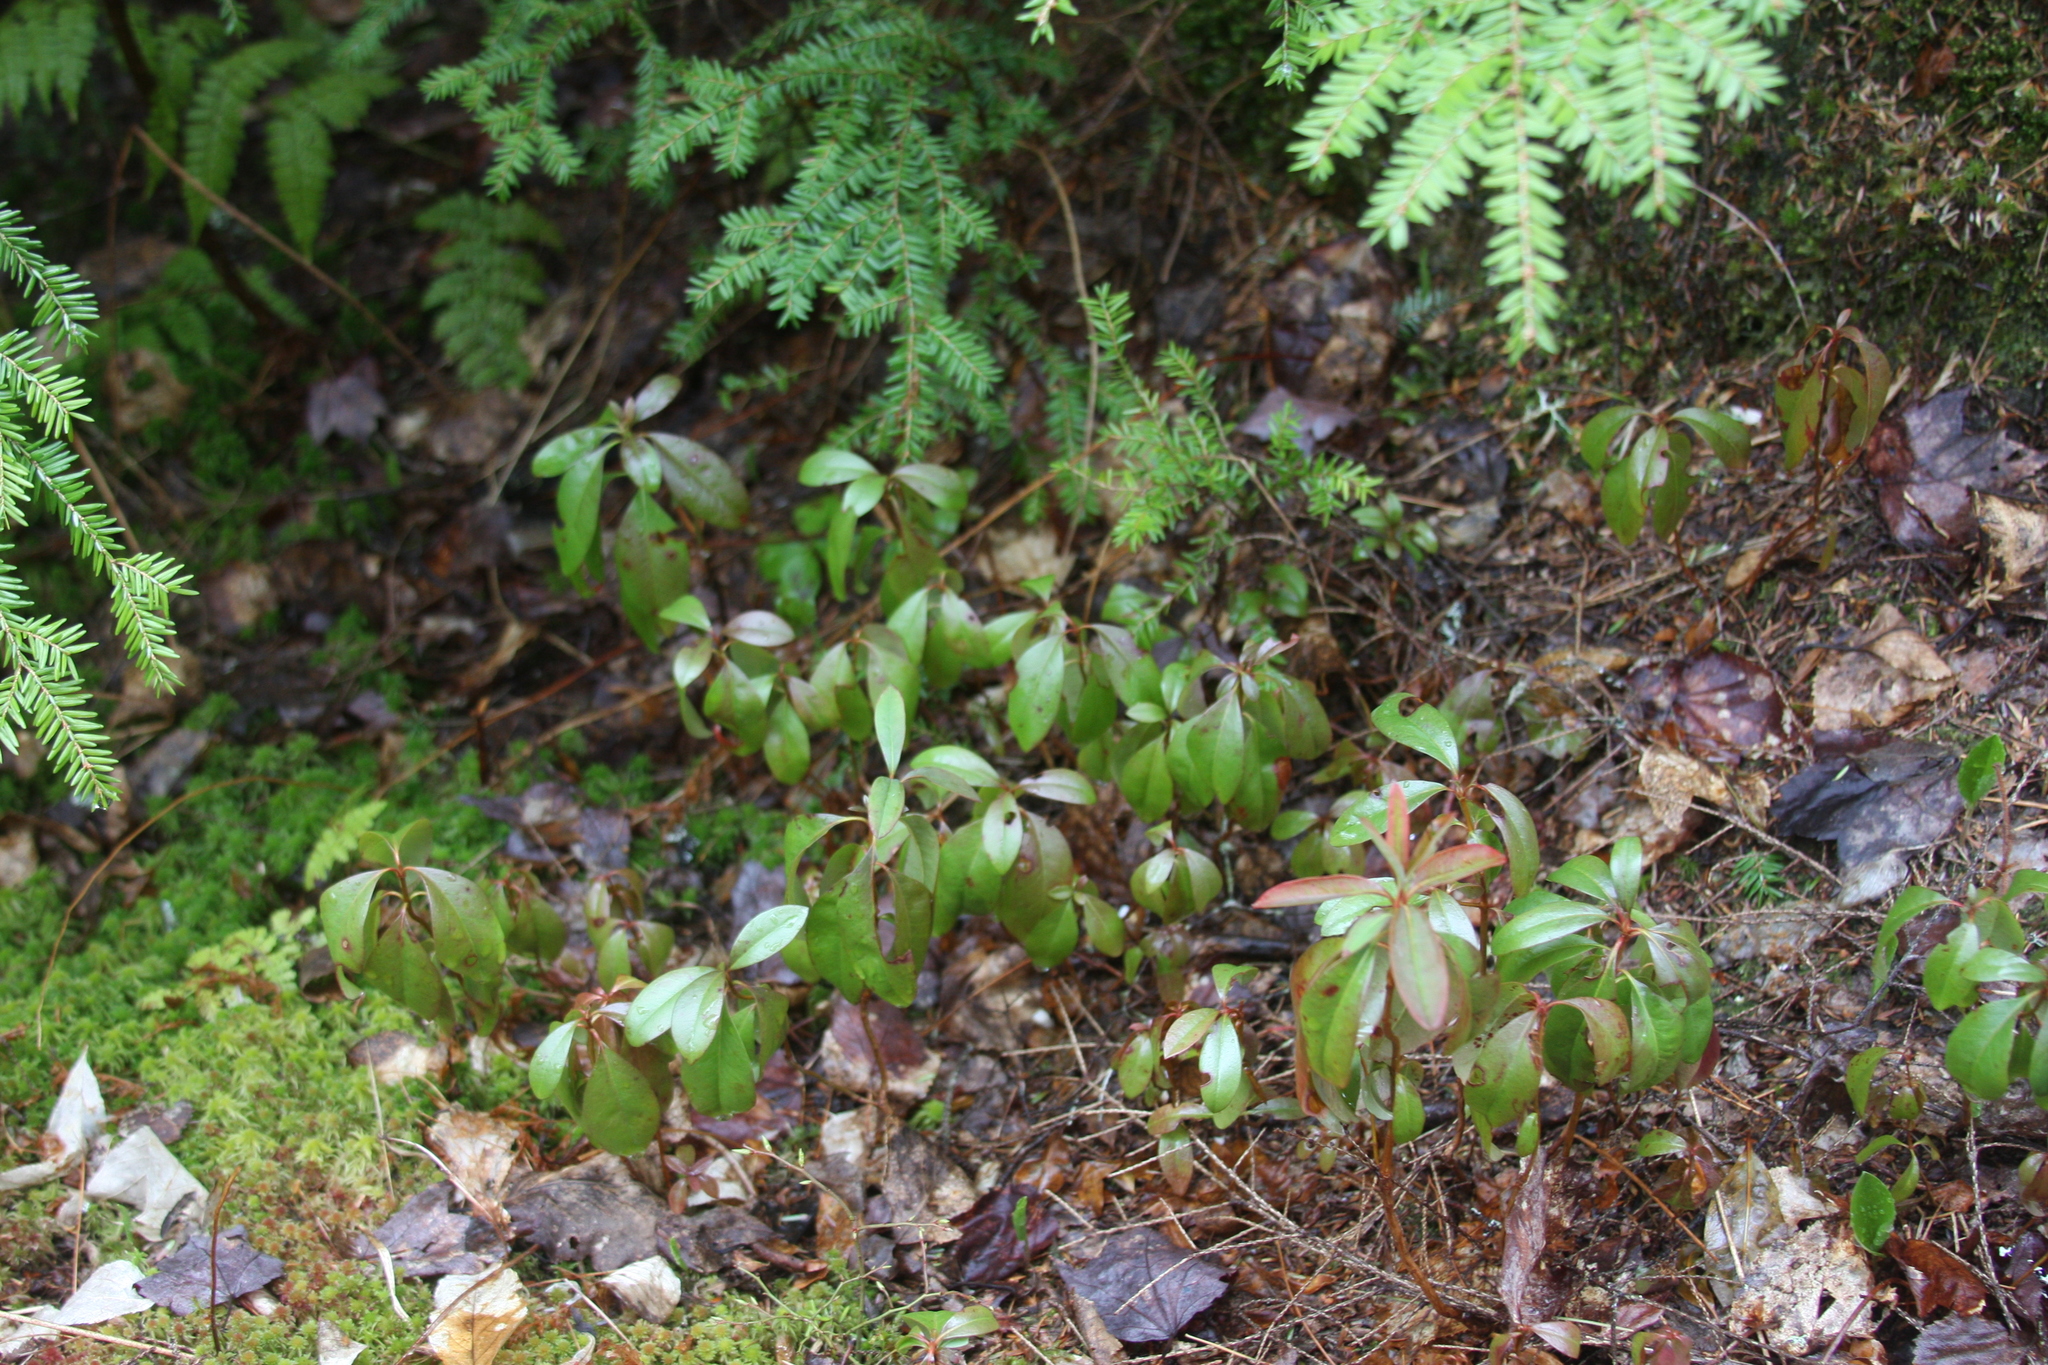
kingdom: Plantae
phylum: Tracheophyta
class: Magnoliopsida
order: Ericales
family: Ericaceae
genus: Kalmia
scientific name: Kalmia angustifolia
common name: Sheep-laurel
